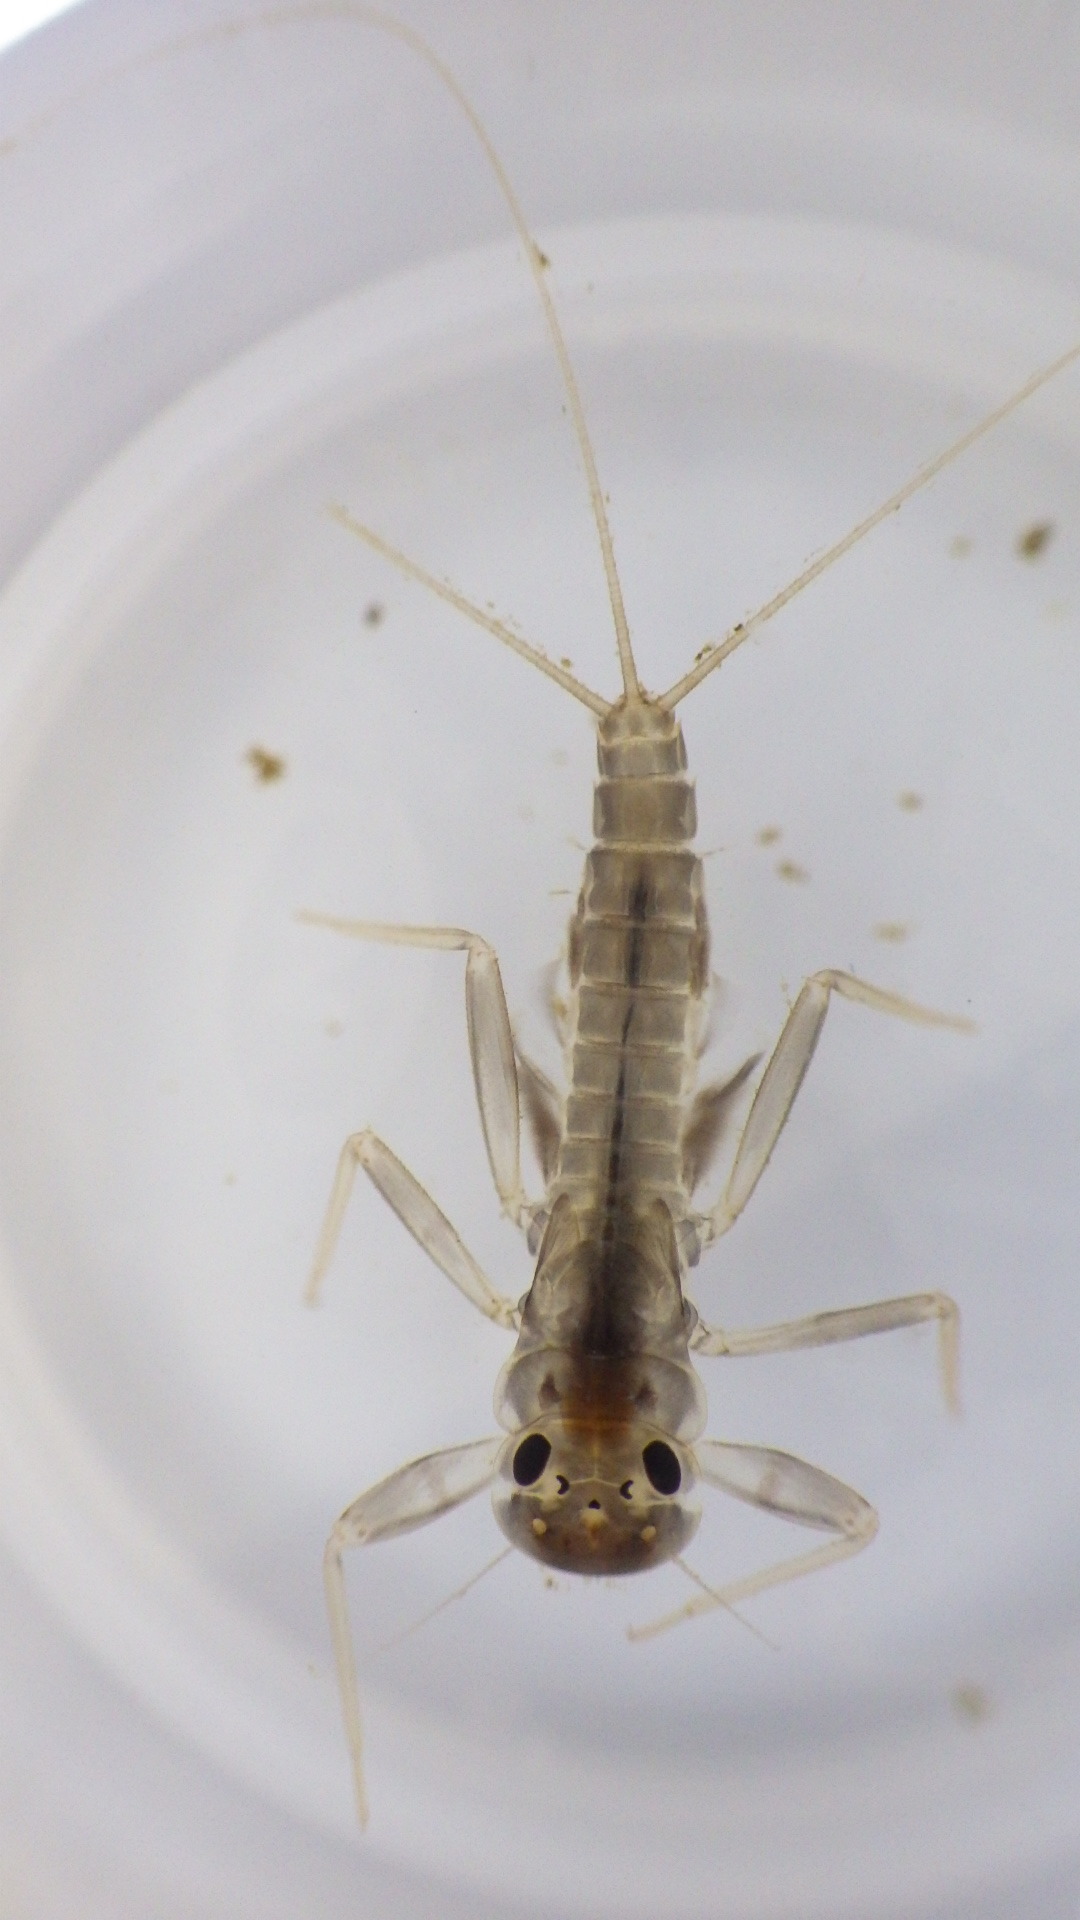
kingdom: Animalia
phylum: Arthropoda
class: Insecta
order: Ephemeroptera
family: Heptageniidae
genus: Stenacron
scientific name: Stenacron carolina
